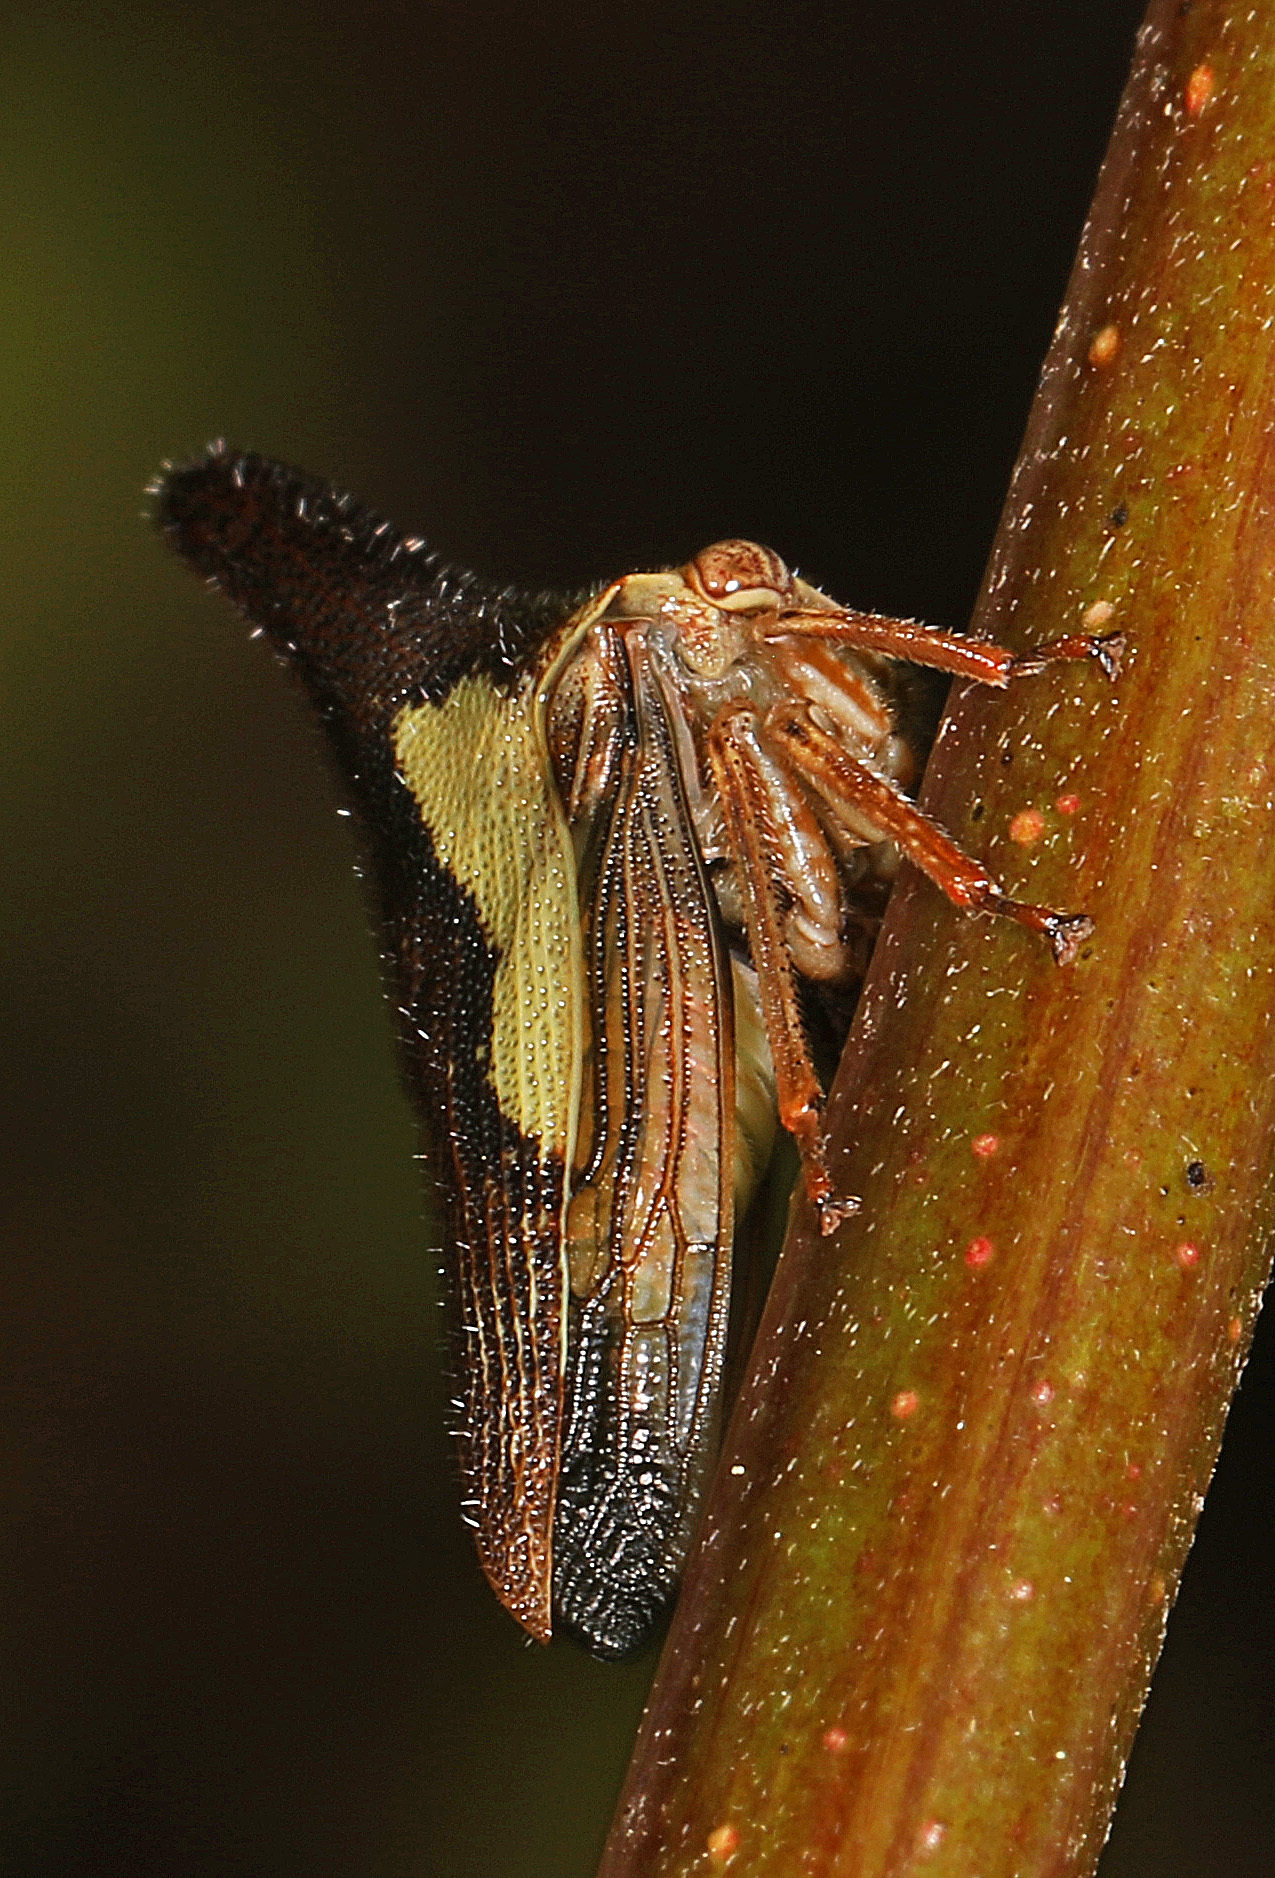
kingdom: Animalia
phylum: Arthropoda
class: Insecta
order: Hemiptera
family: Membracidae
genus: Thelia
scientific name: Thelia bimaculata
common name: Locust treehopper
